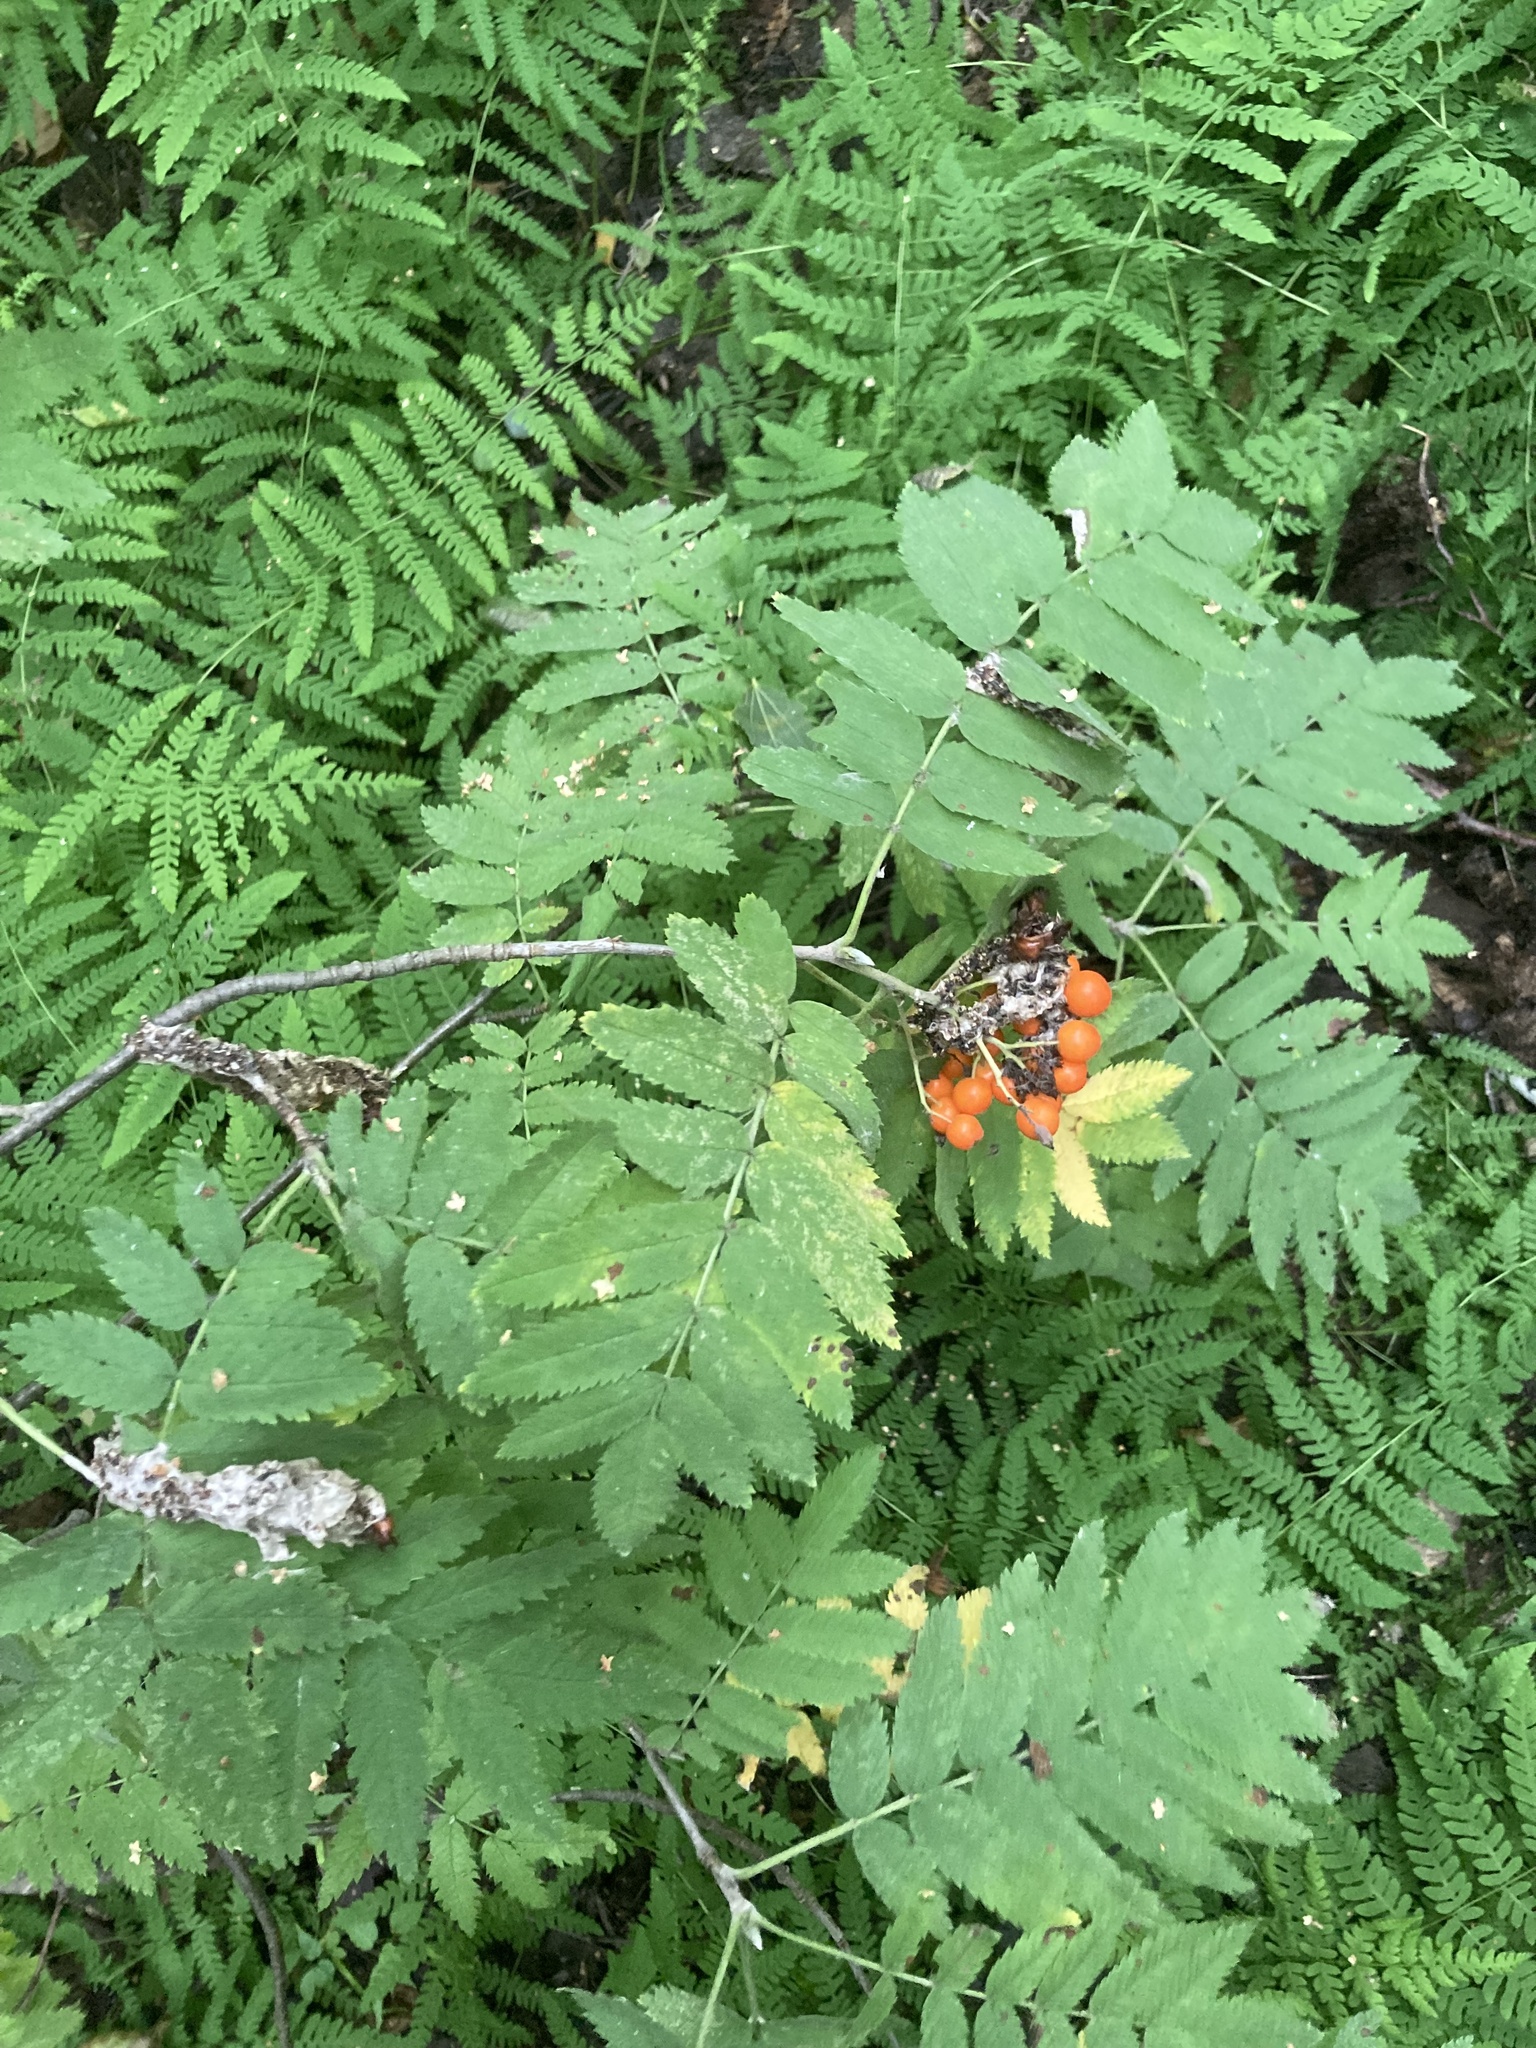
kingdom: Plantae
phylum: Tracheophyta
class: Magnoliopsida
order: Rosales
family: Rosaceae
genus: Sorbus
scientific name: Sorbus aucuparia
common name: Rowan
